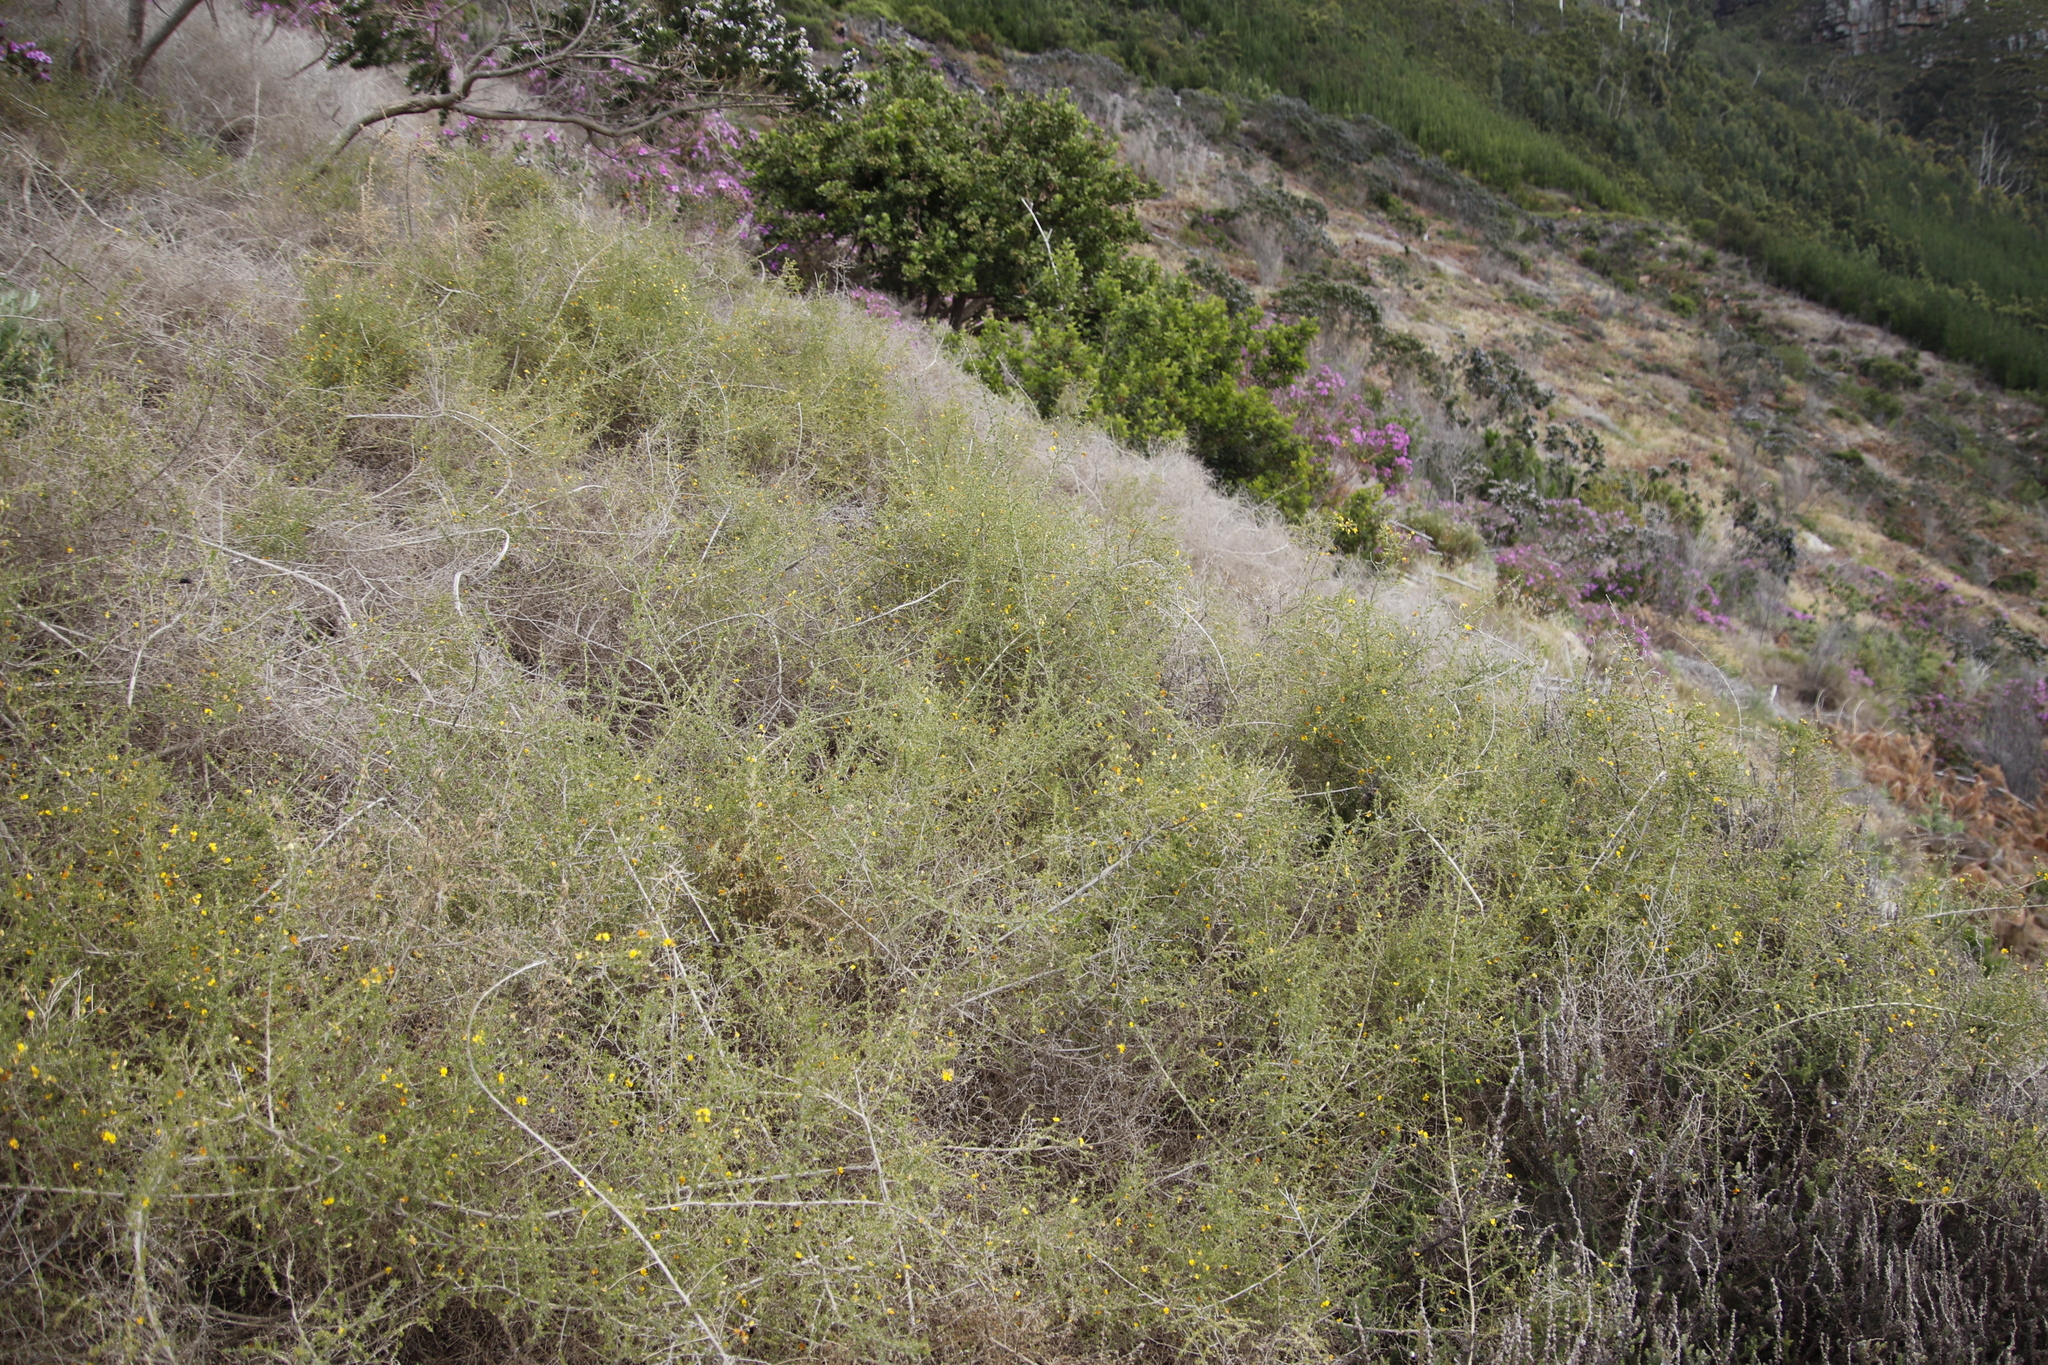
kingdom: Plantae
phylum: Tracheophyta
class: Magnoliopsida
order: Fabales
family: Fabaceae
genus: Aspalathus
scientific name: Aspalathus divaricata
